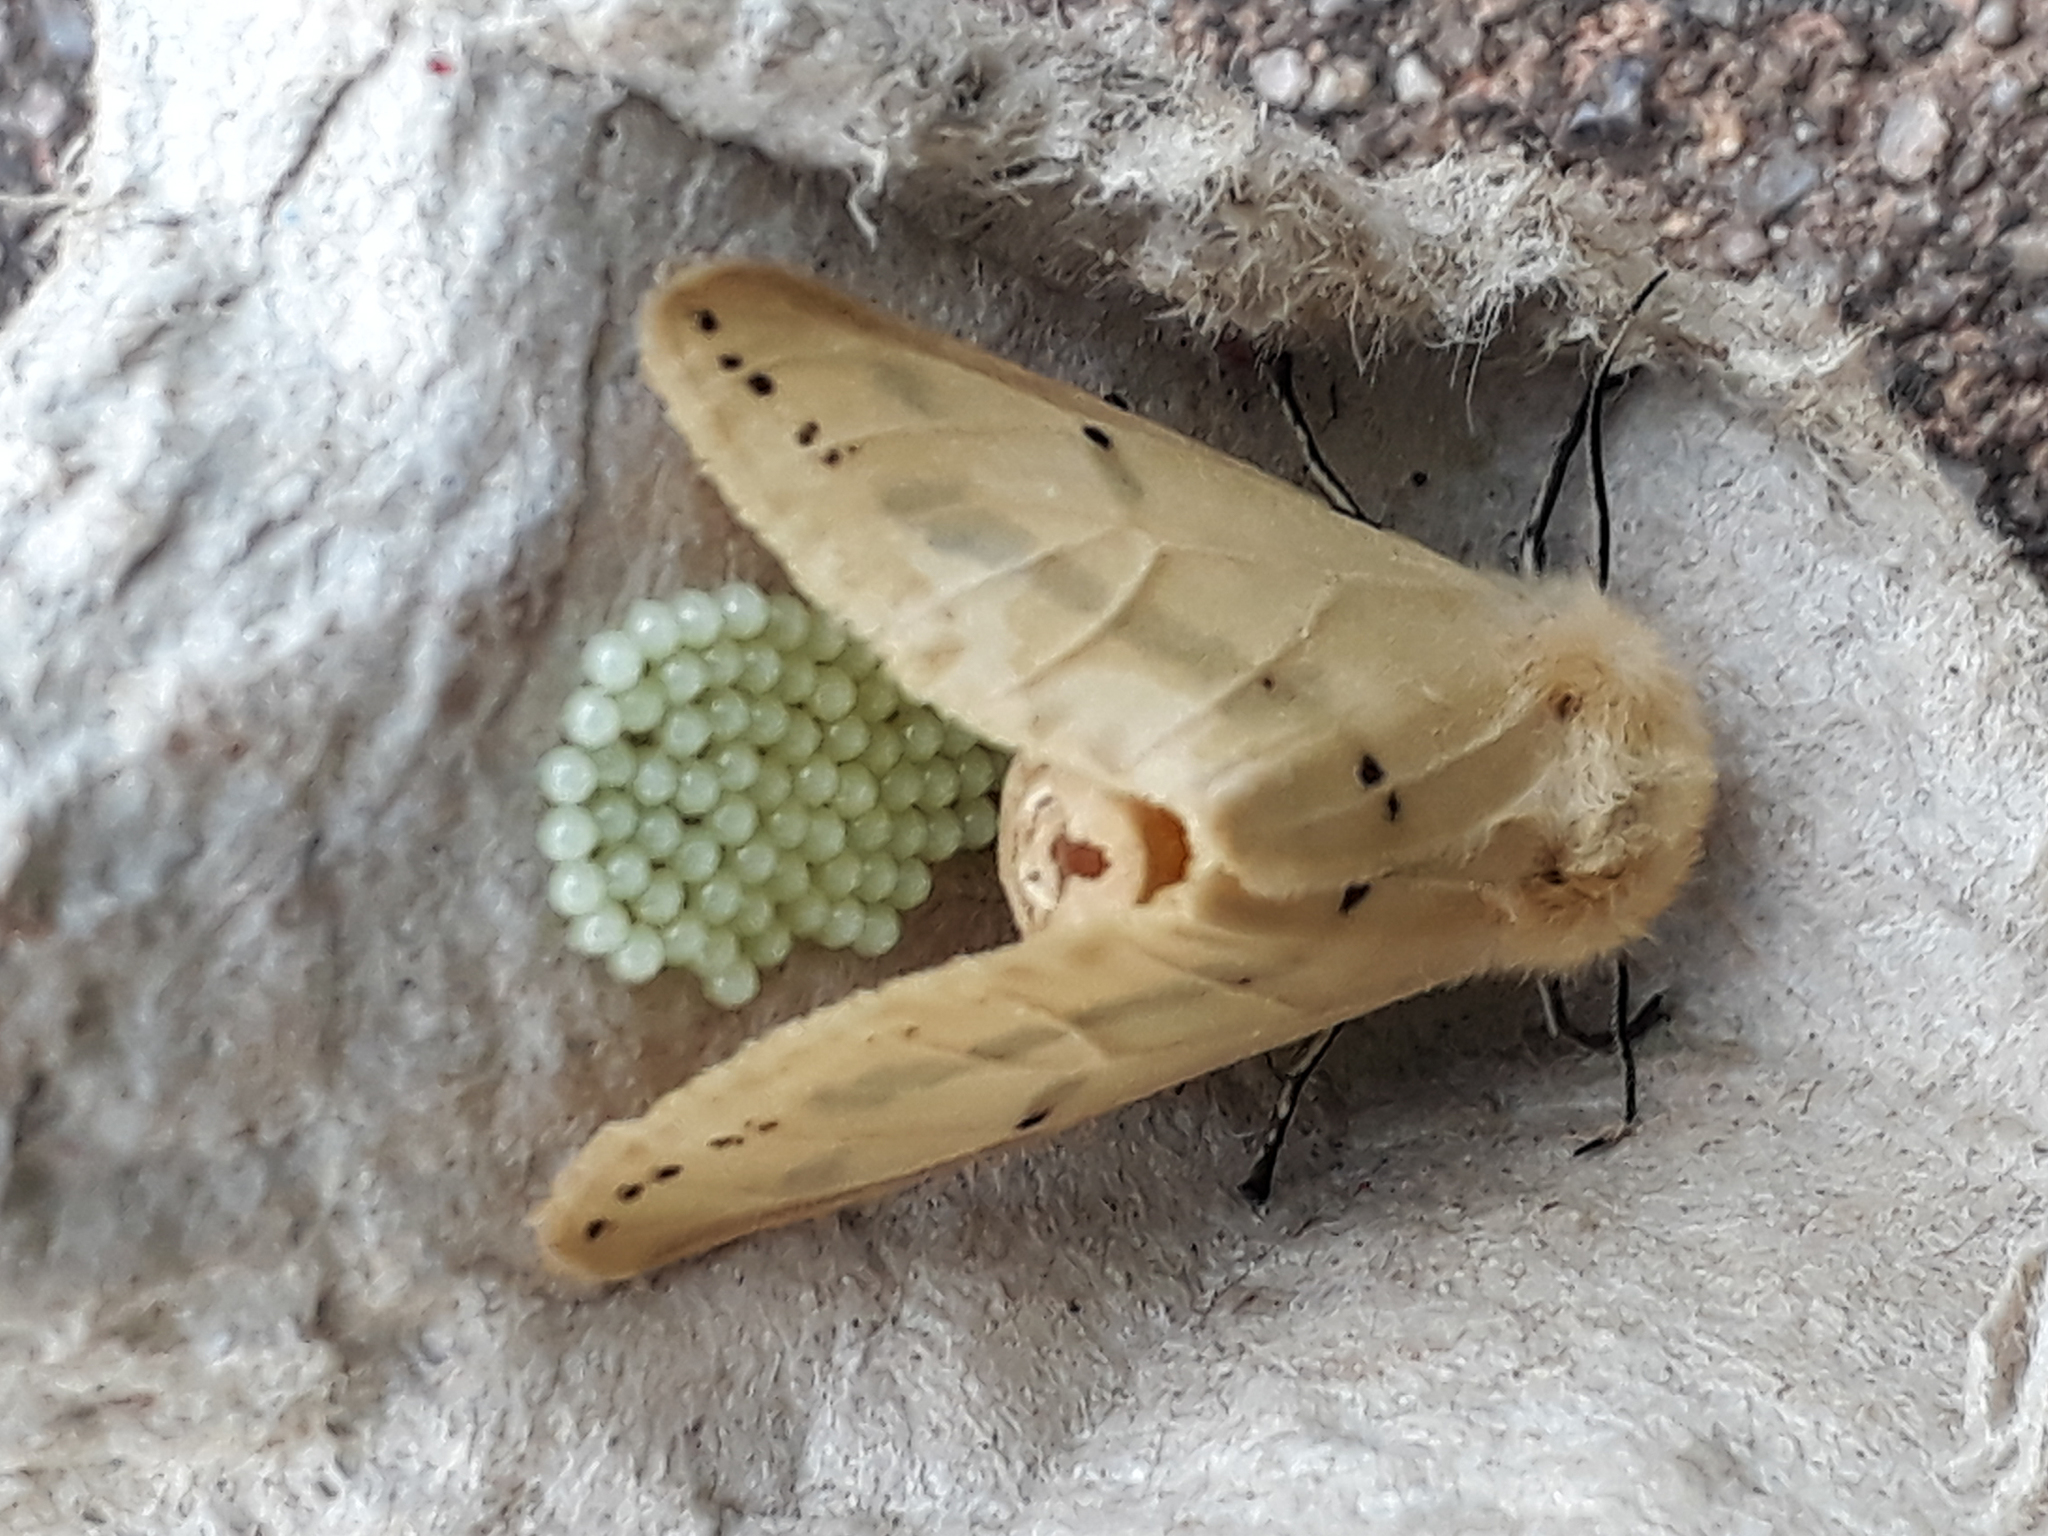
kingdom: Animalia
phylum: Arthropoda
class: Insecta
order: Lepidoptera
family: Erebidae
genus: Spilarctia
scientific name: Spilarctia lutea
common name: Buff ermine
